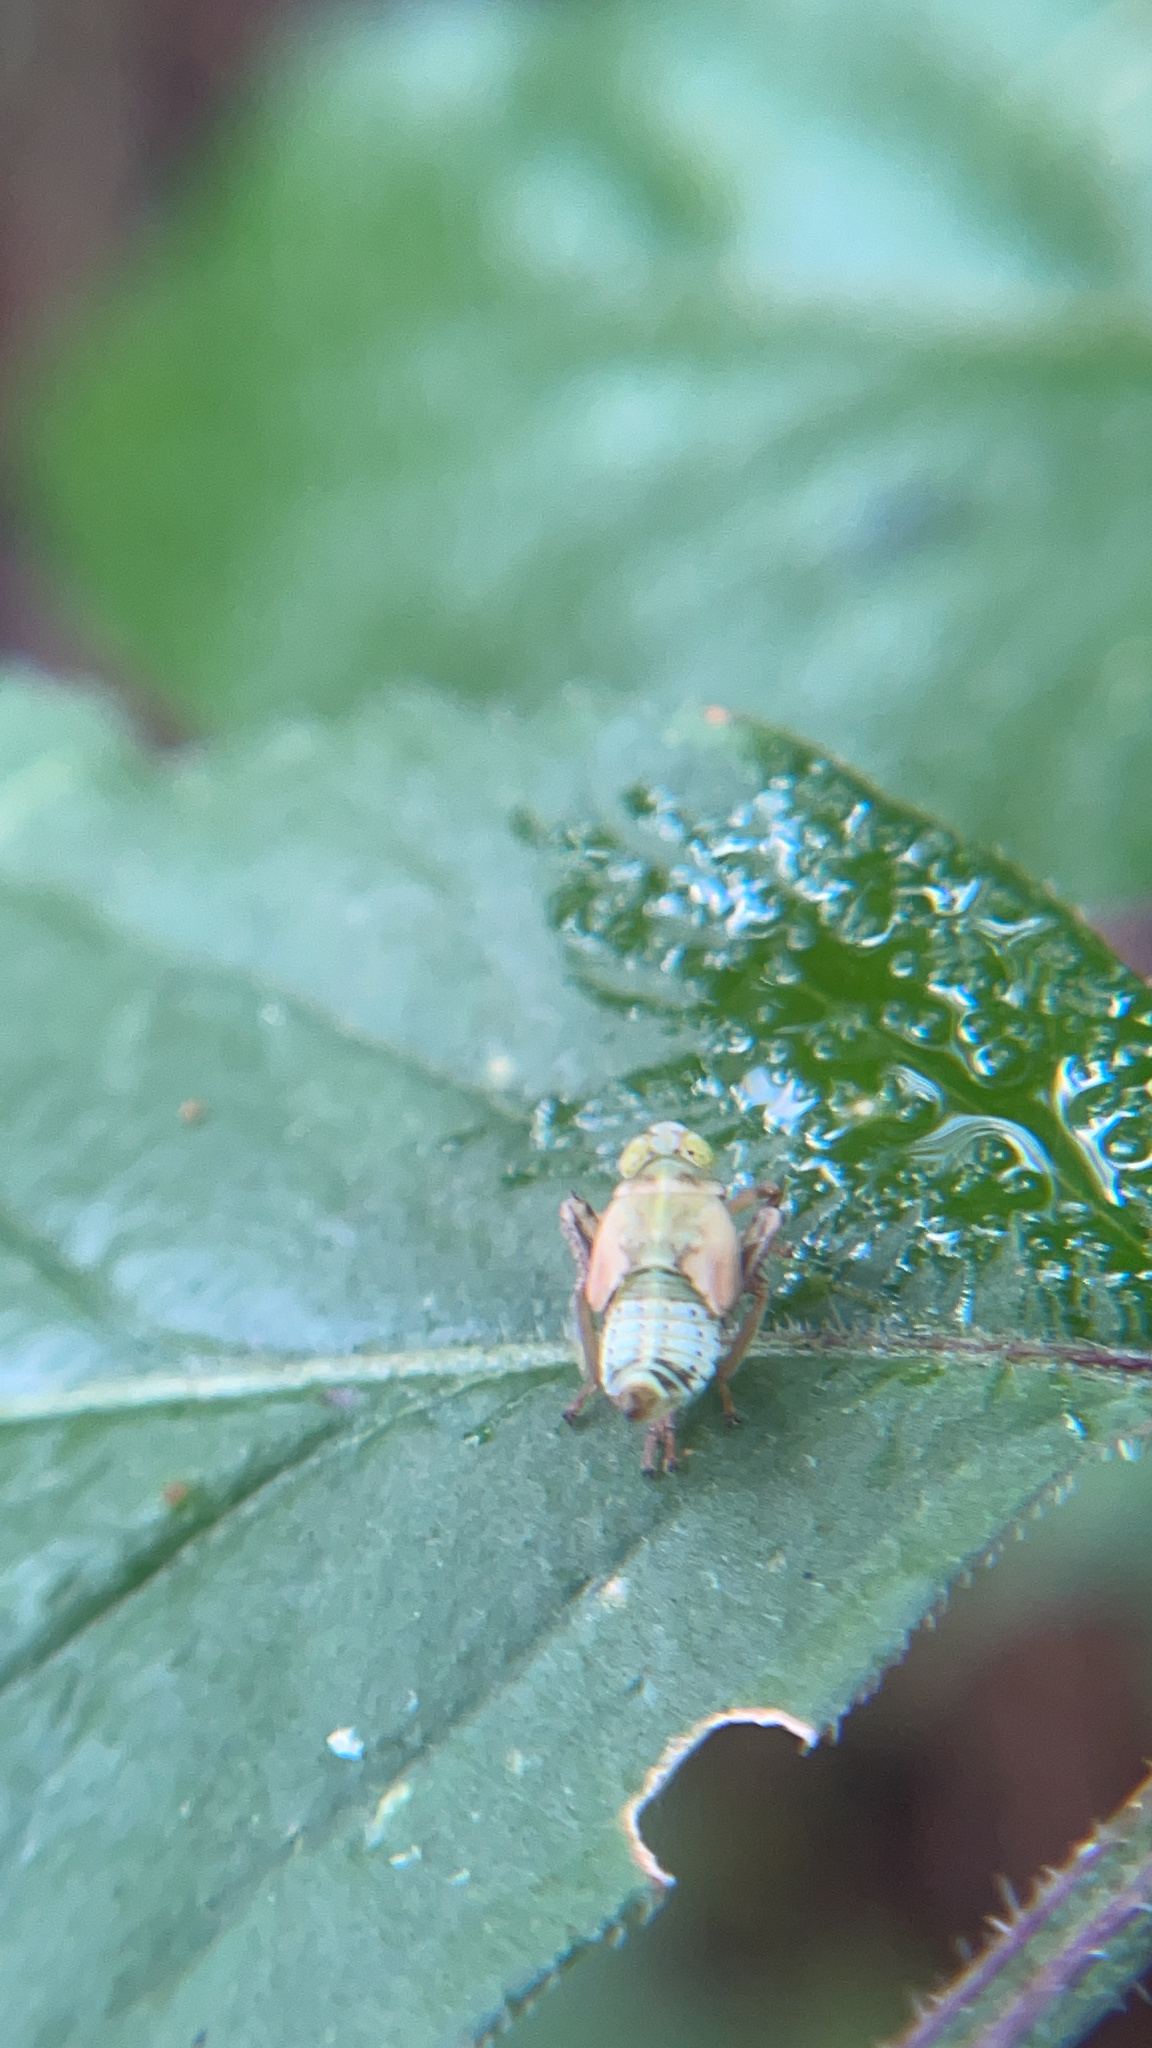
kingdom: Animalia
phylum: Arthropoda
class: Insecta
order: Hemiptera
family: Cicadellidae
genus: Jikradia
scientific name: Jikradia olitoria
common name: Coppery leafhopper
